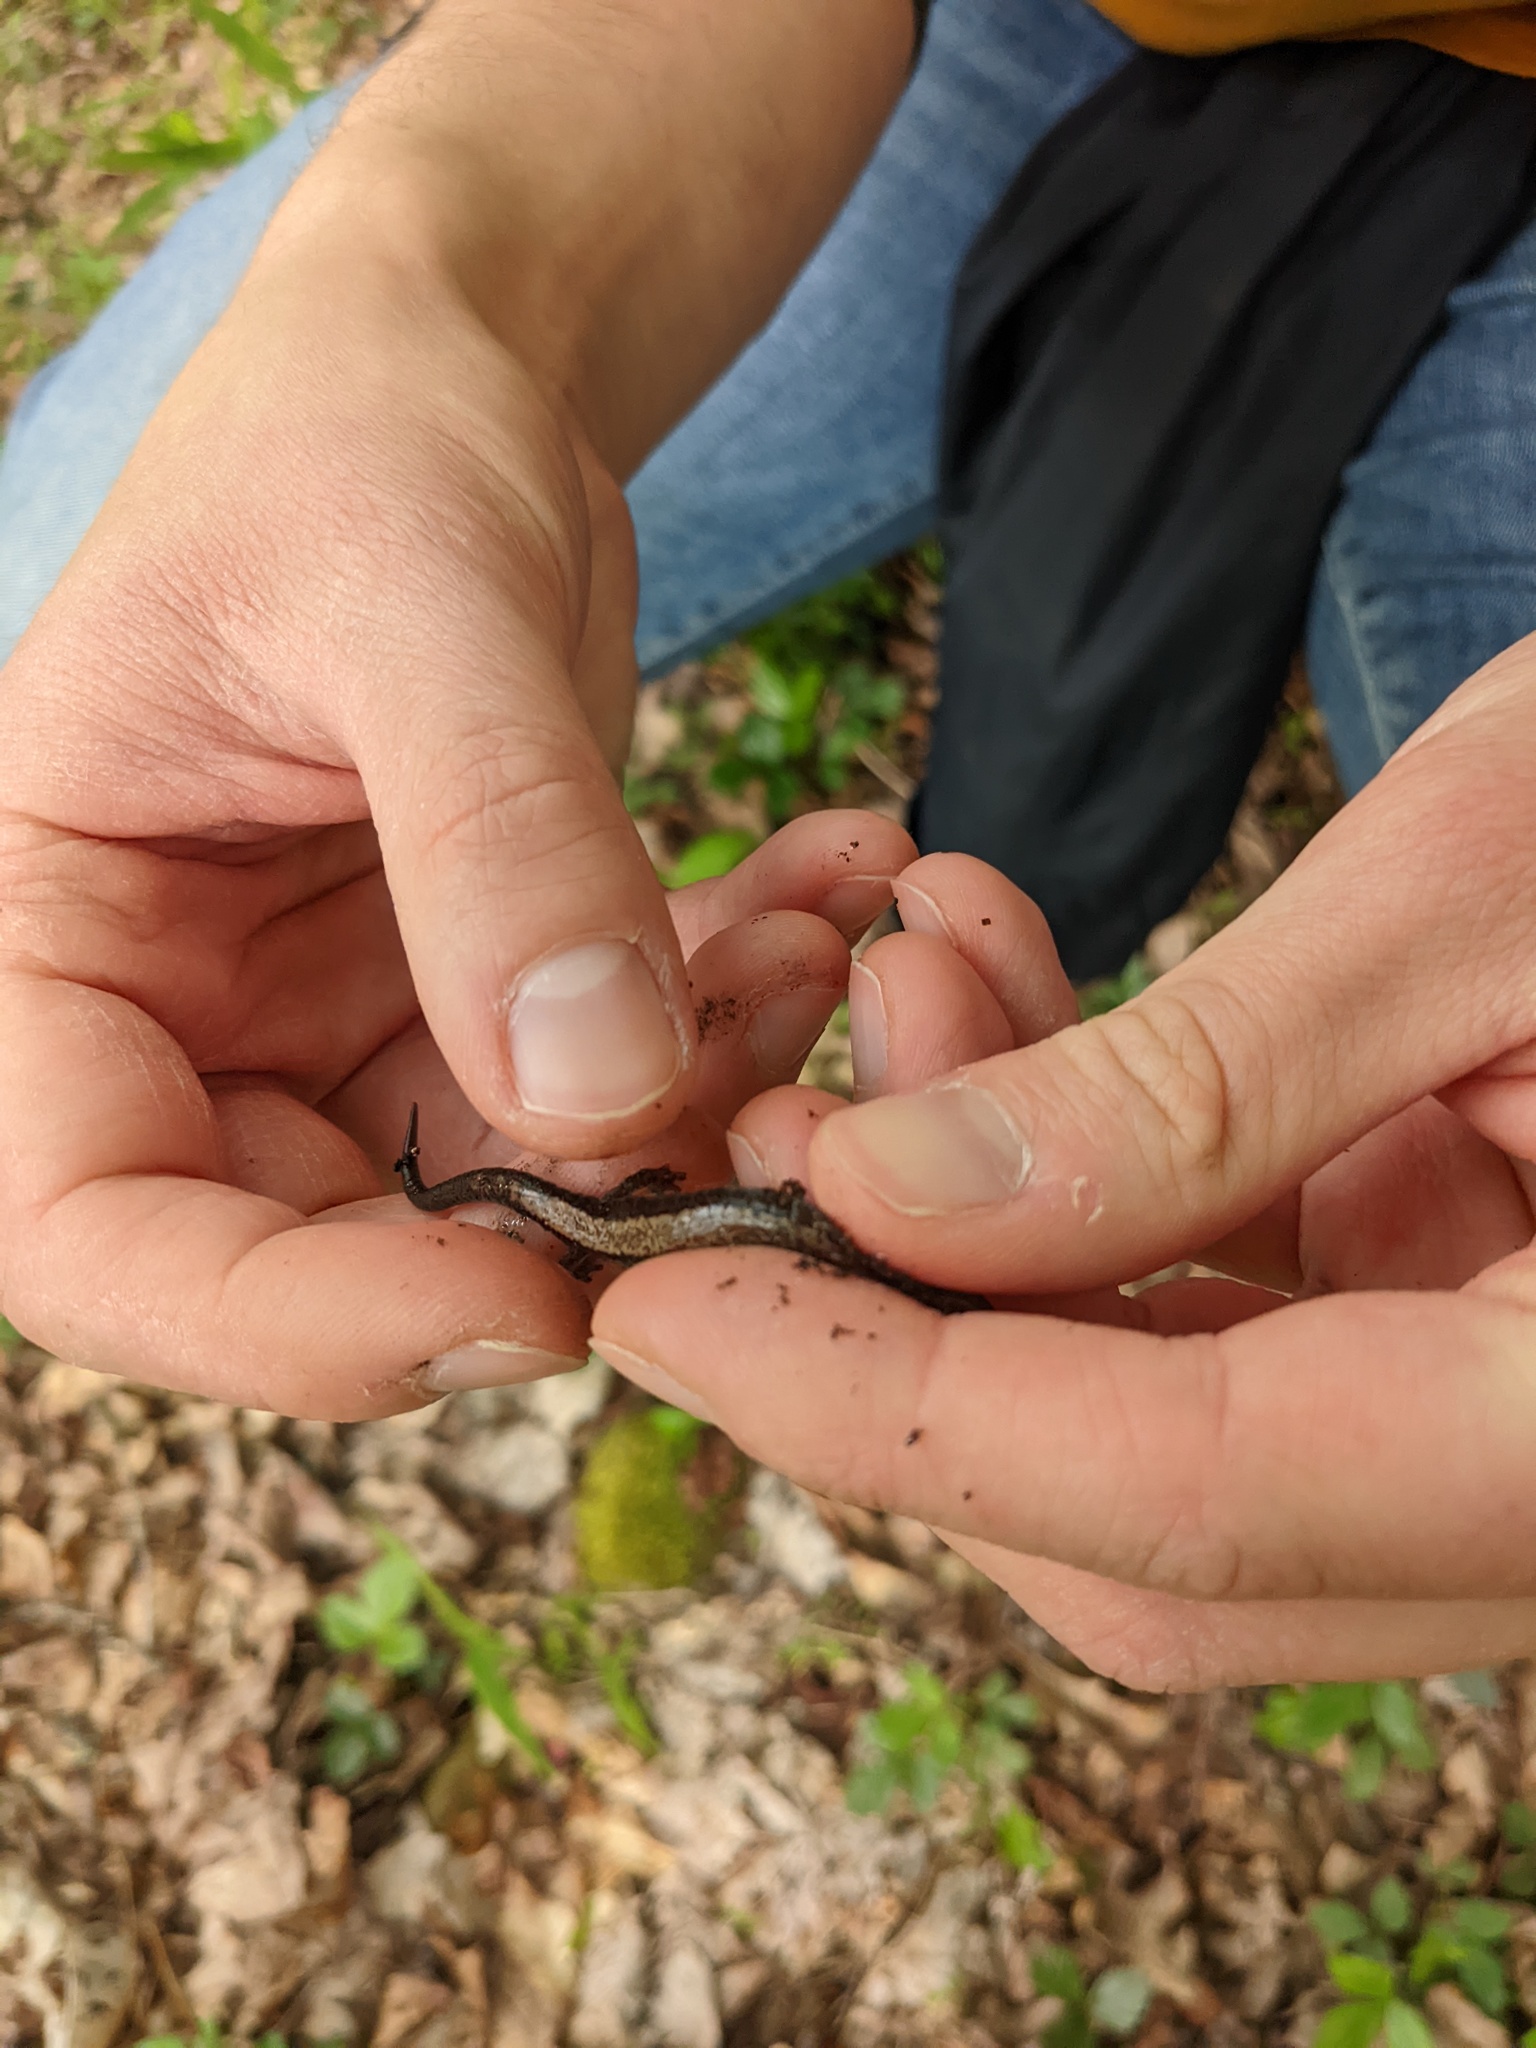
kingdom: Animalia
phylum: Chordata
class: Amphibia
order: Caudata
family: Plethodontidae
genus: Plethodon
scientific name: Plethodon cinereus
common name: Redback salamander
